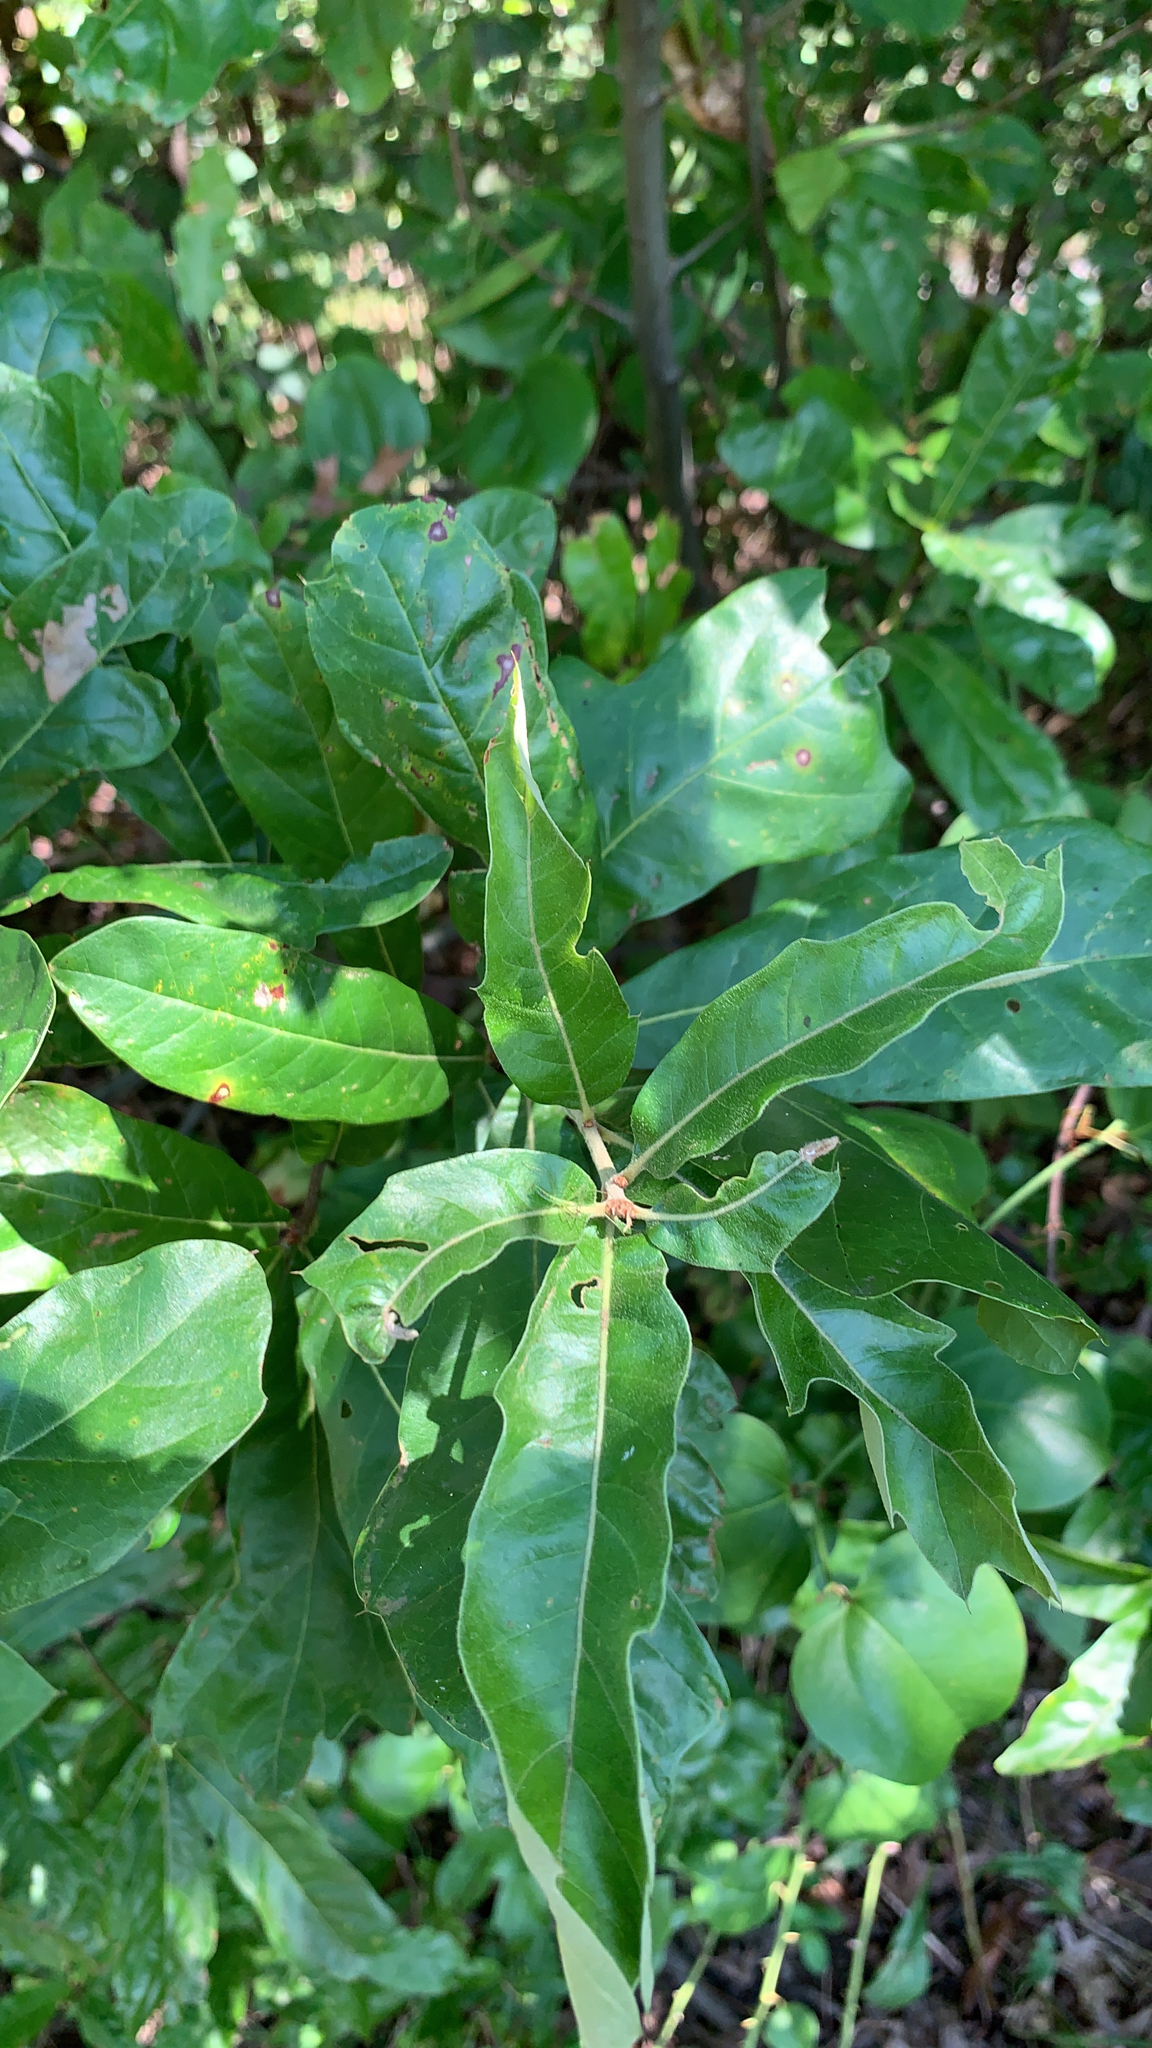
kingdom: Plantae
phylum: Tracheophyta
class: Magnoliopsida
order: Fagales
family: Fagaceae
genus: Quercus
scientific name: Quercus leana
